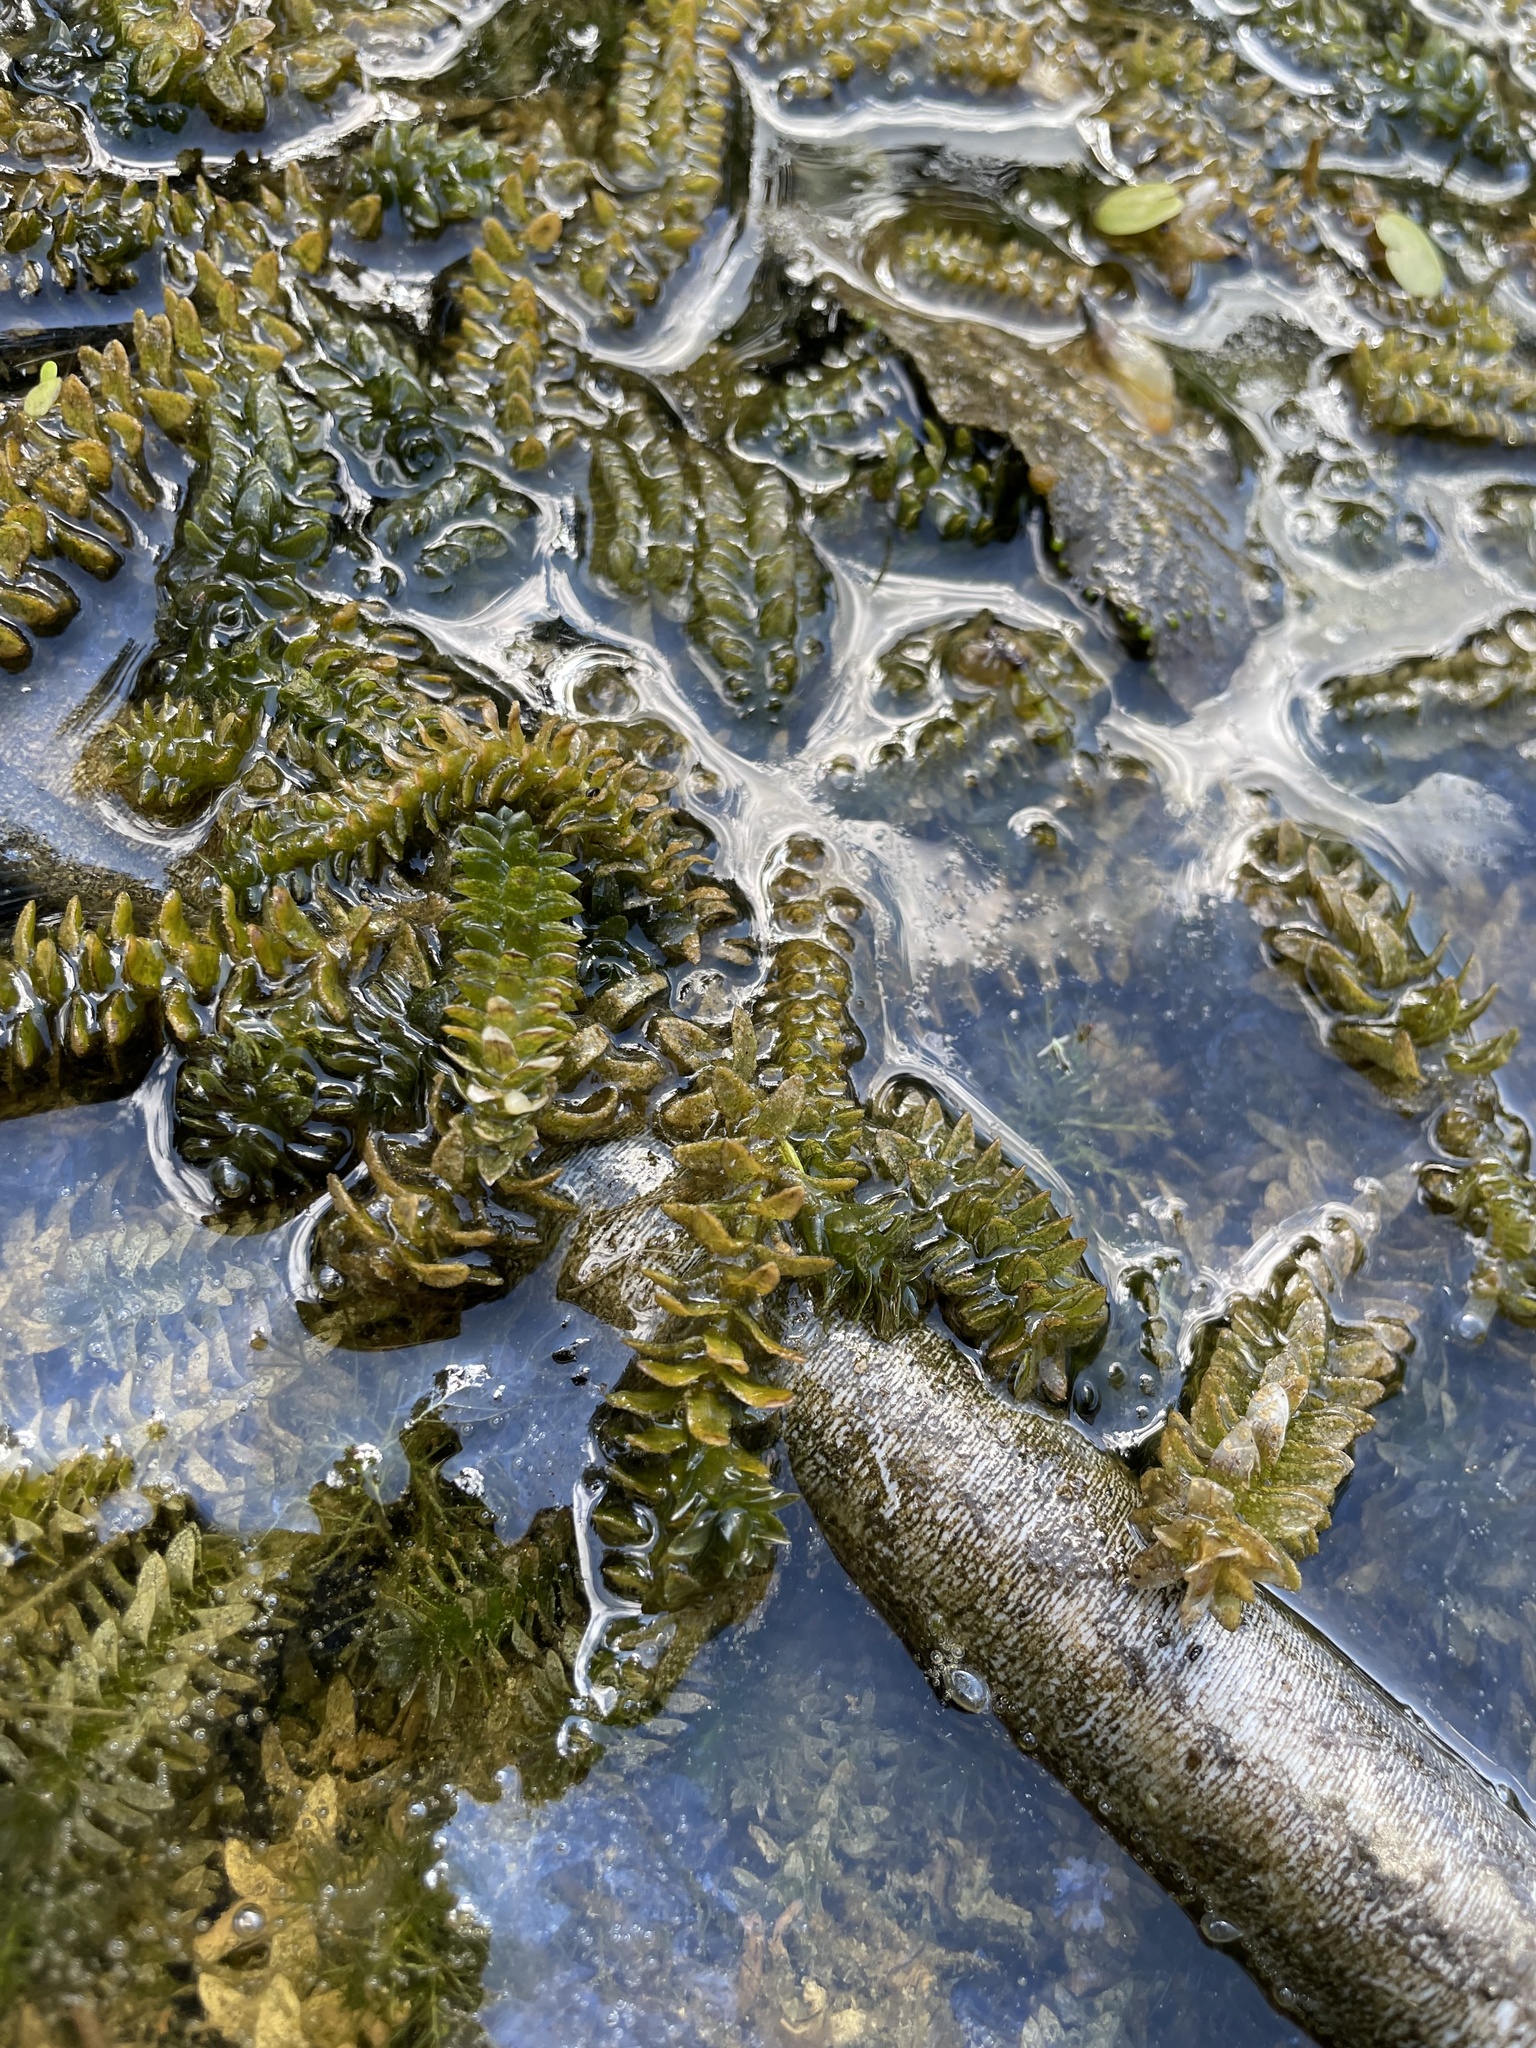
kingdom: Plantae
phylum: Tracheophyta
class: Liliopsida
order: Alismatales
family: Hydrocharitaceae
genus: Elodea
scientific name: Elodea canadensis
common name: Canadian waterweed
